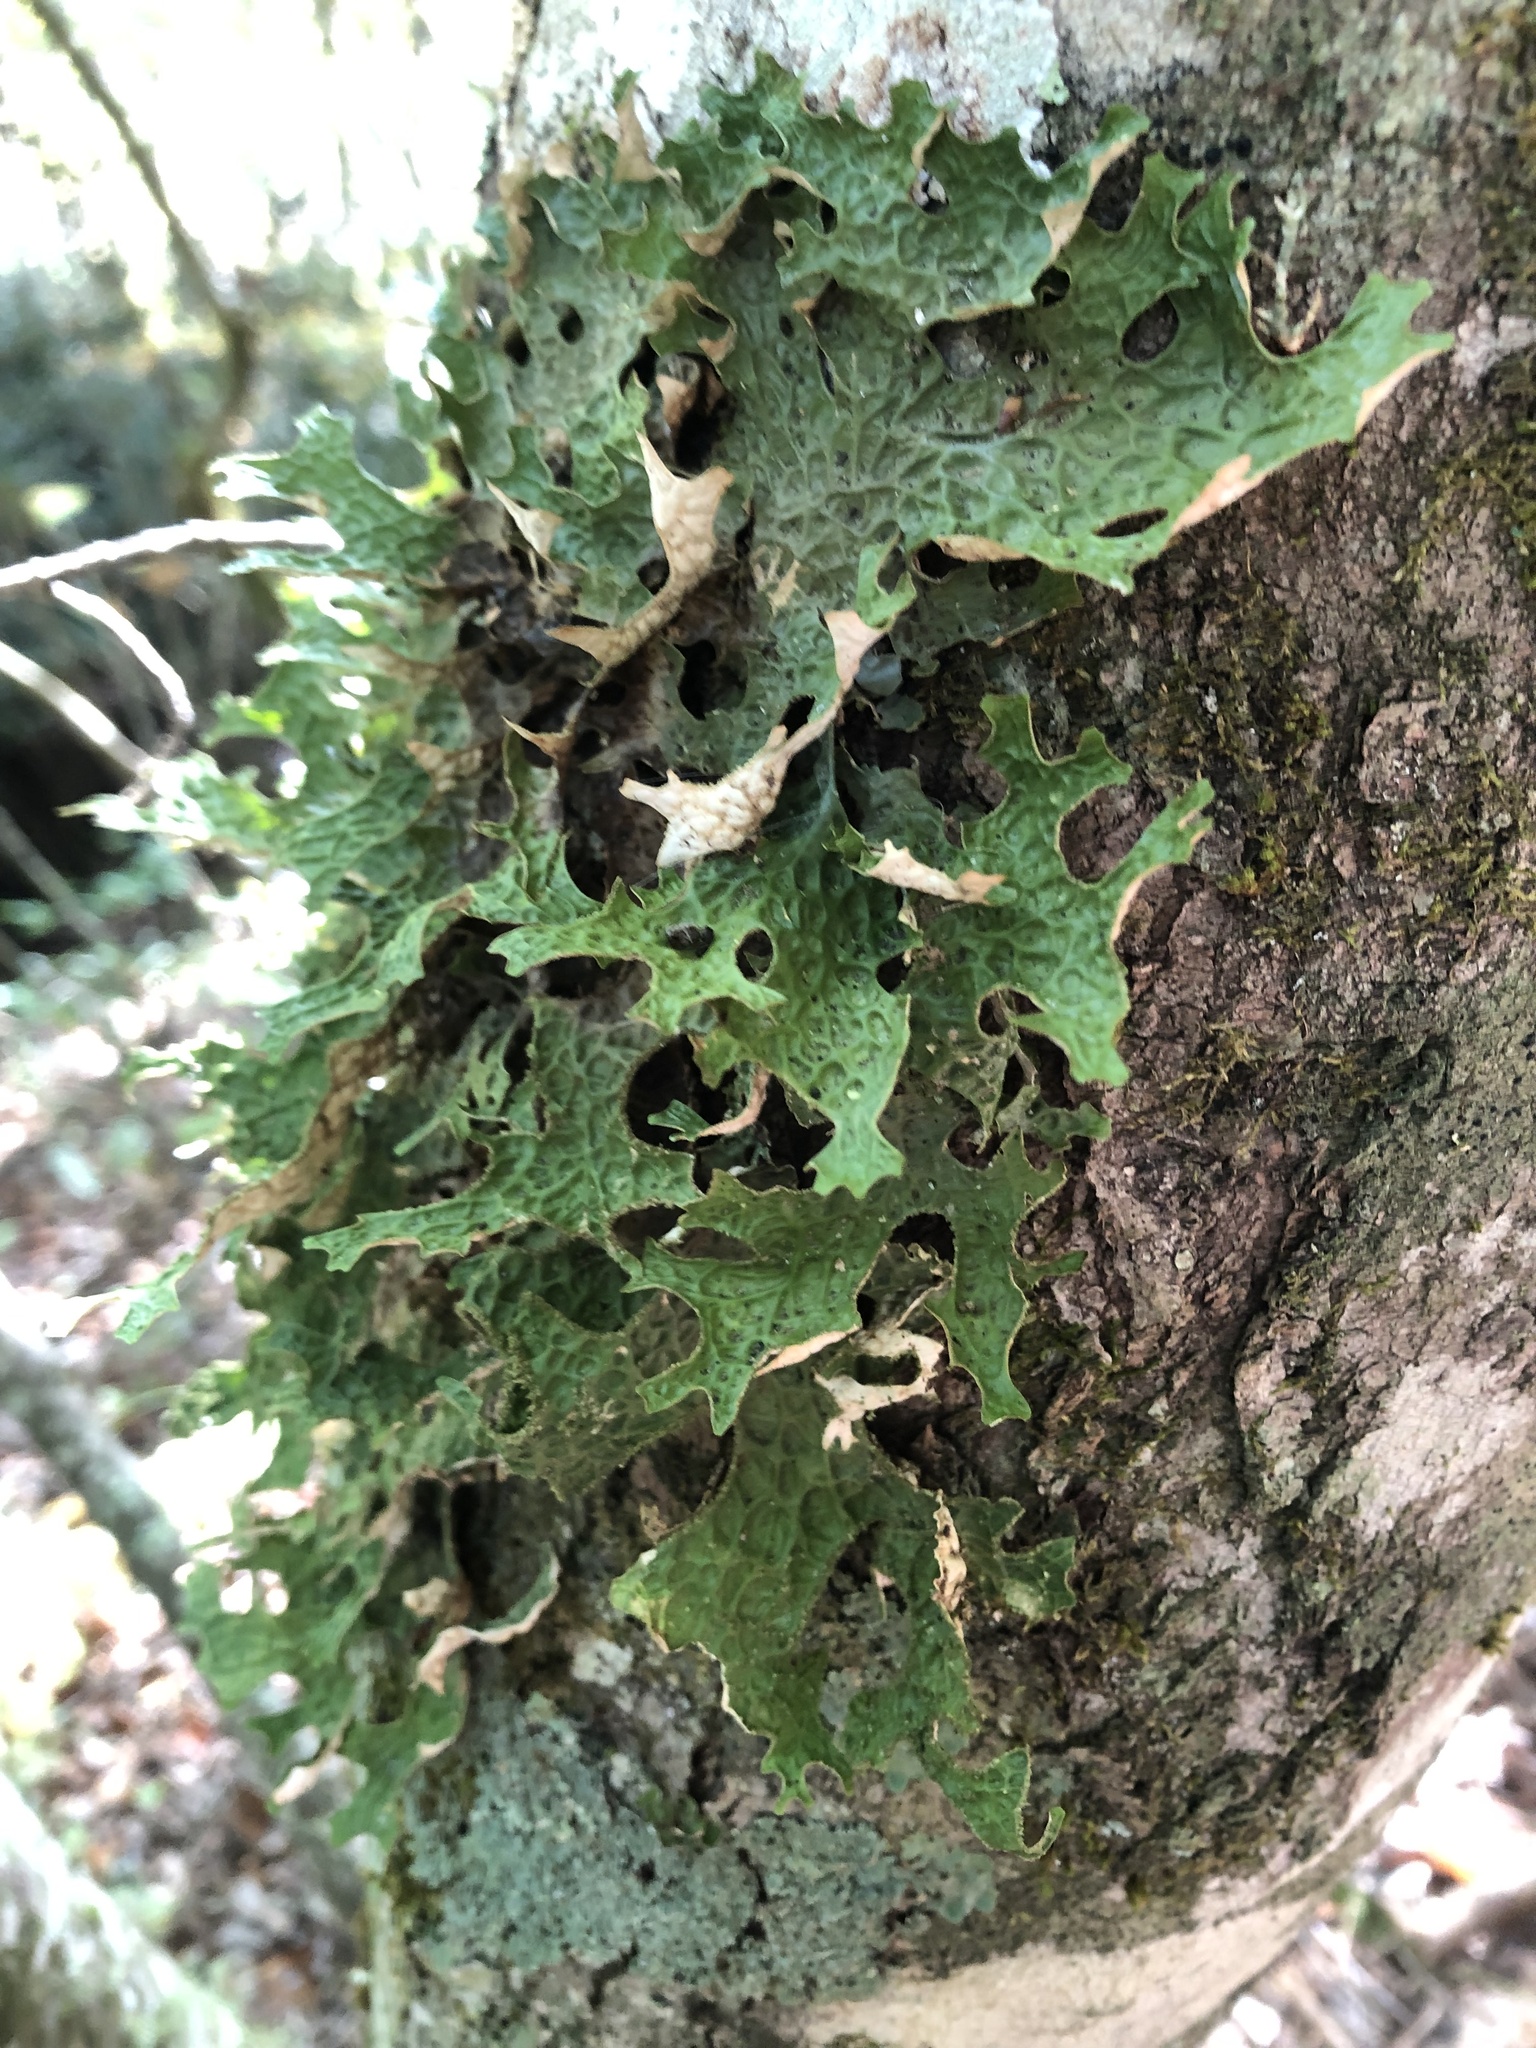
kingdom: Fungi
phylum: Ascomycota
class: Lecanoromycetes
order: Peltigerales
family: Lobariaceae
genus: Lobaria
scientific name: Lobaria pulmonaria
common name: Lungwort
